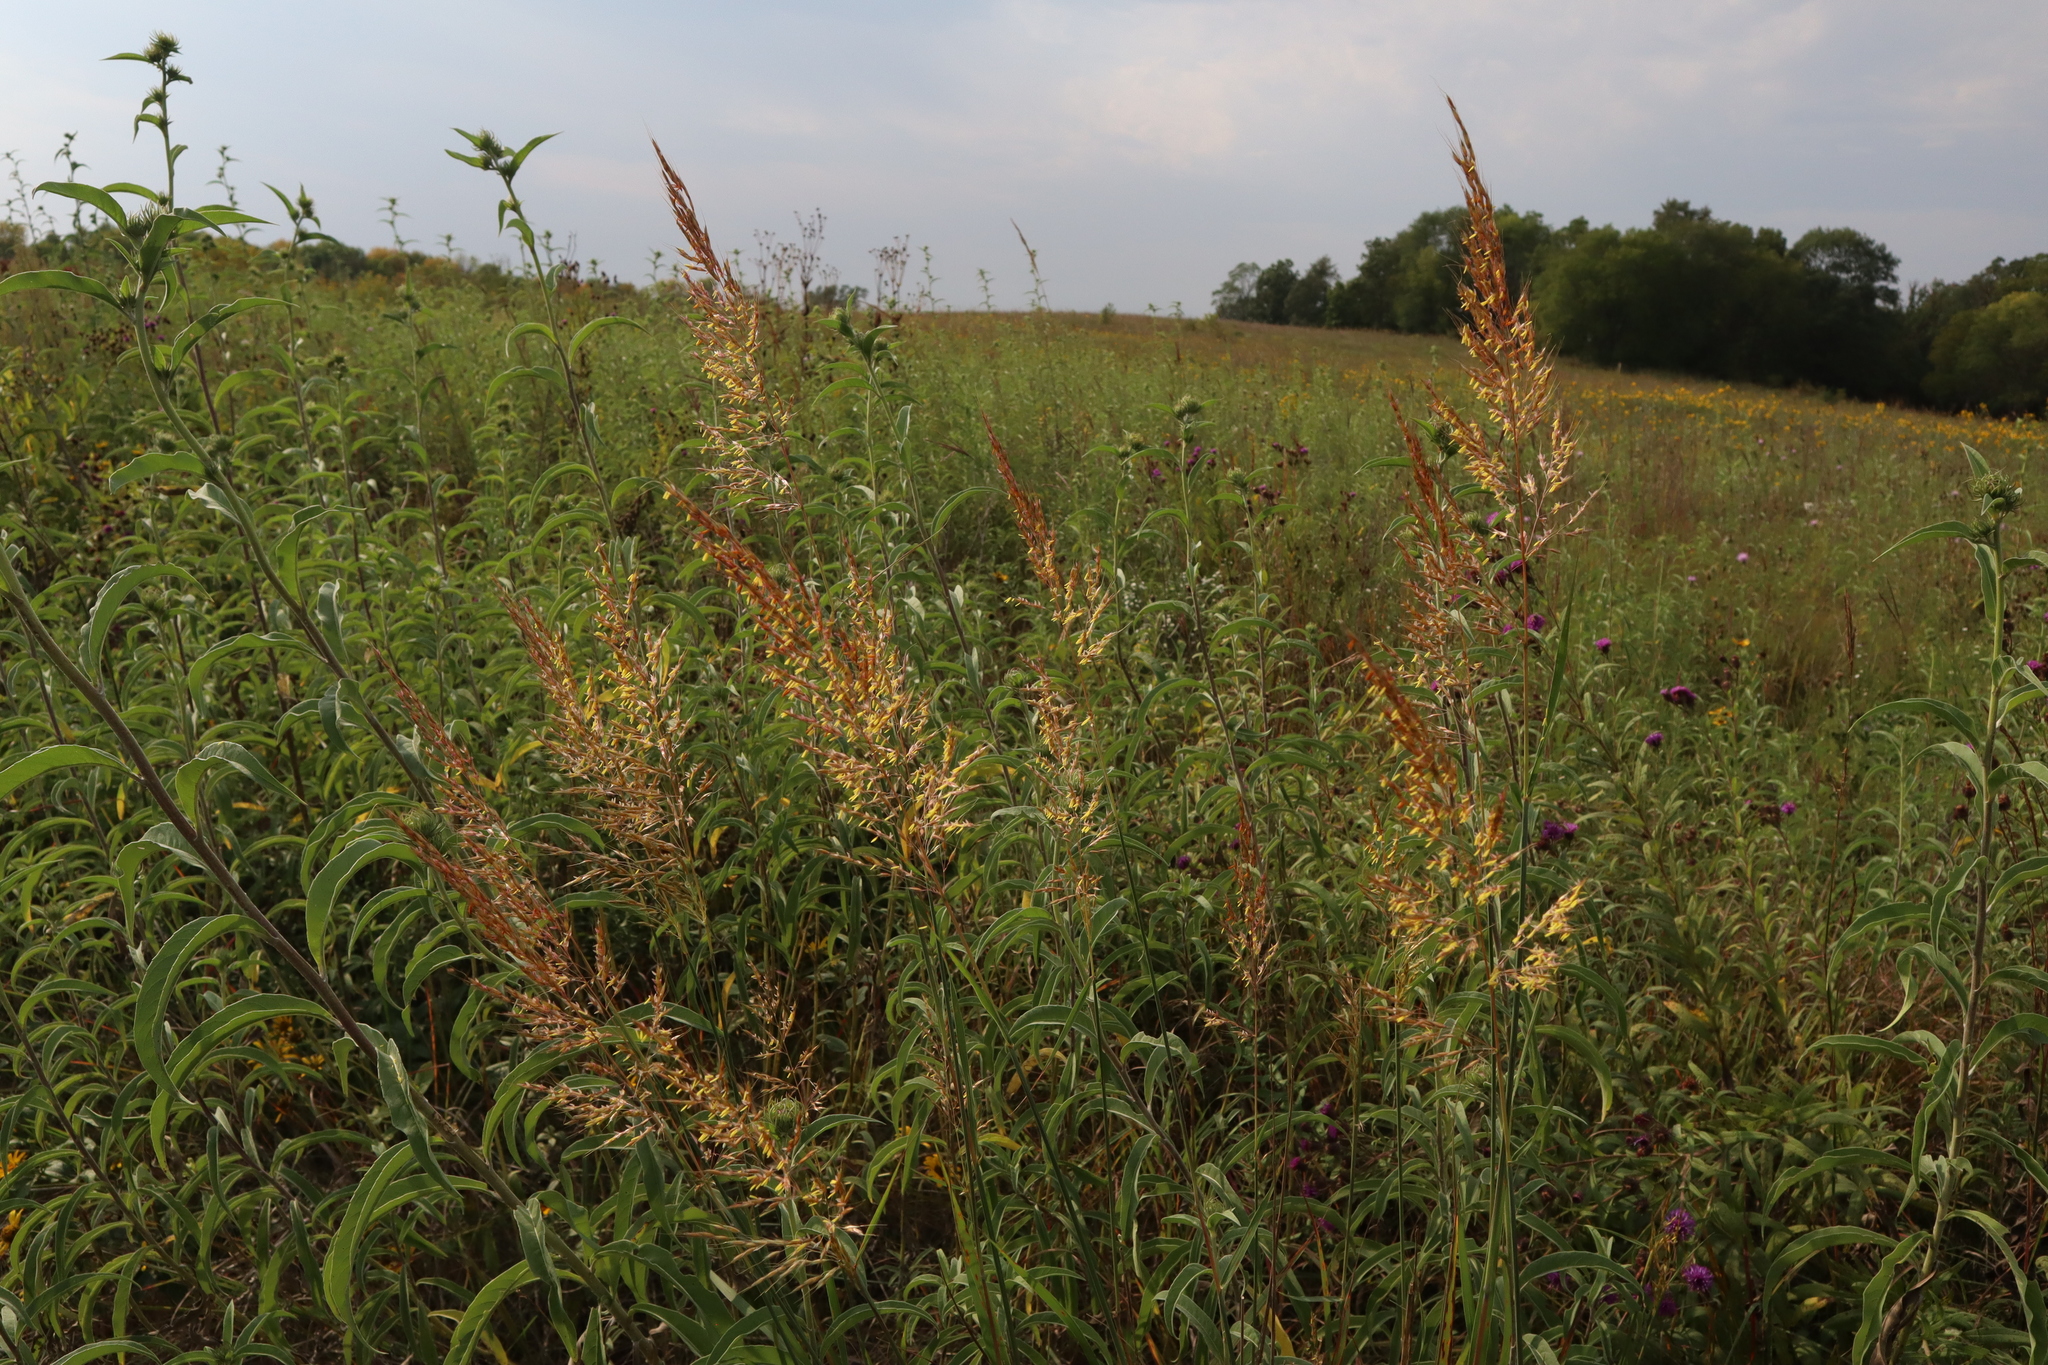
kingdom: Plantae
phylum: Tracheophyta
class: Liliopsida
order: Poales
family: Poaceae
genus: Sorghastrum
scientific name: Sorghastrum nutans
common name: Indian grass
